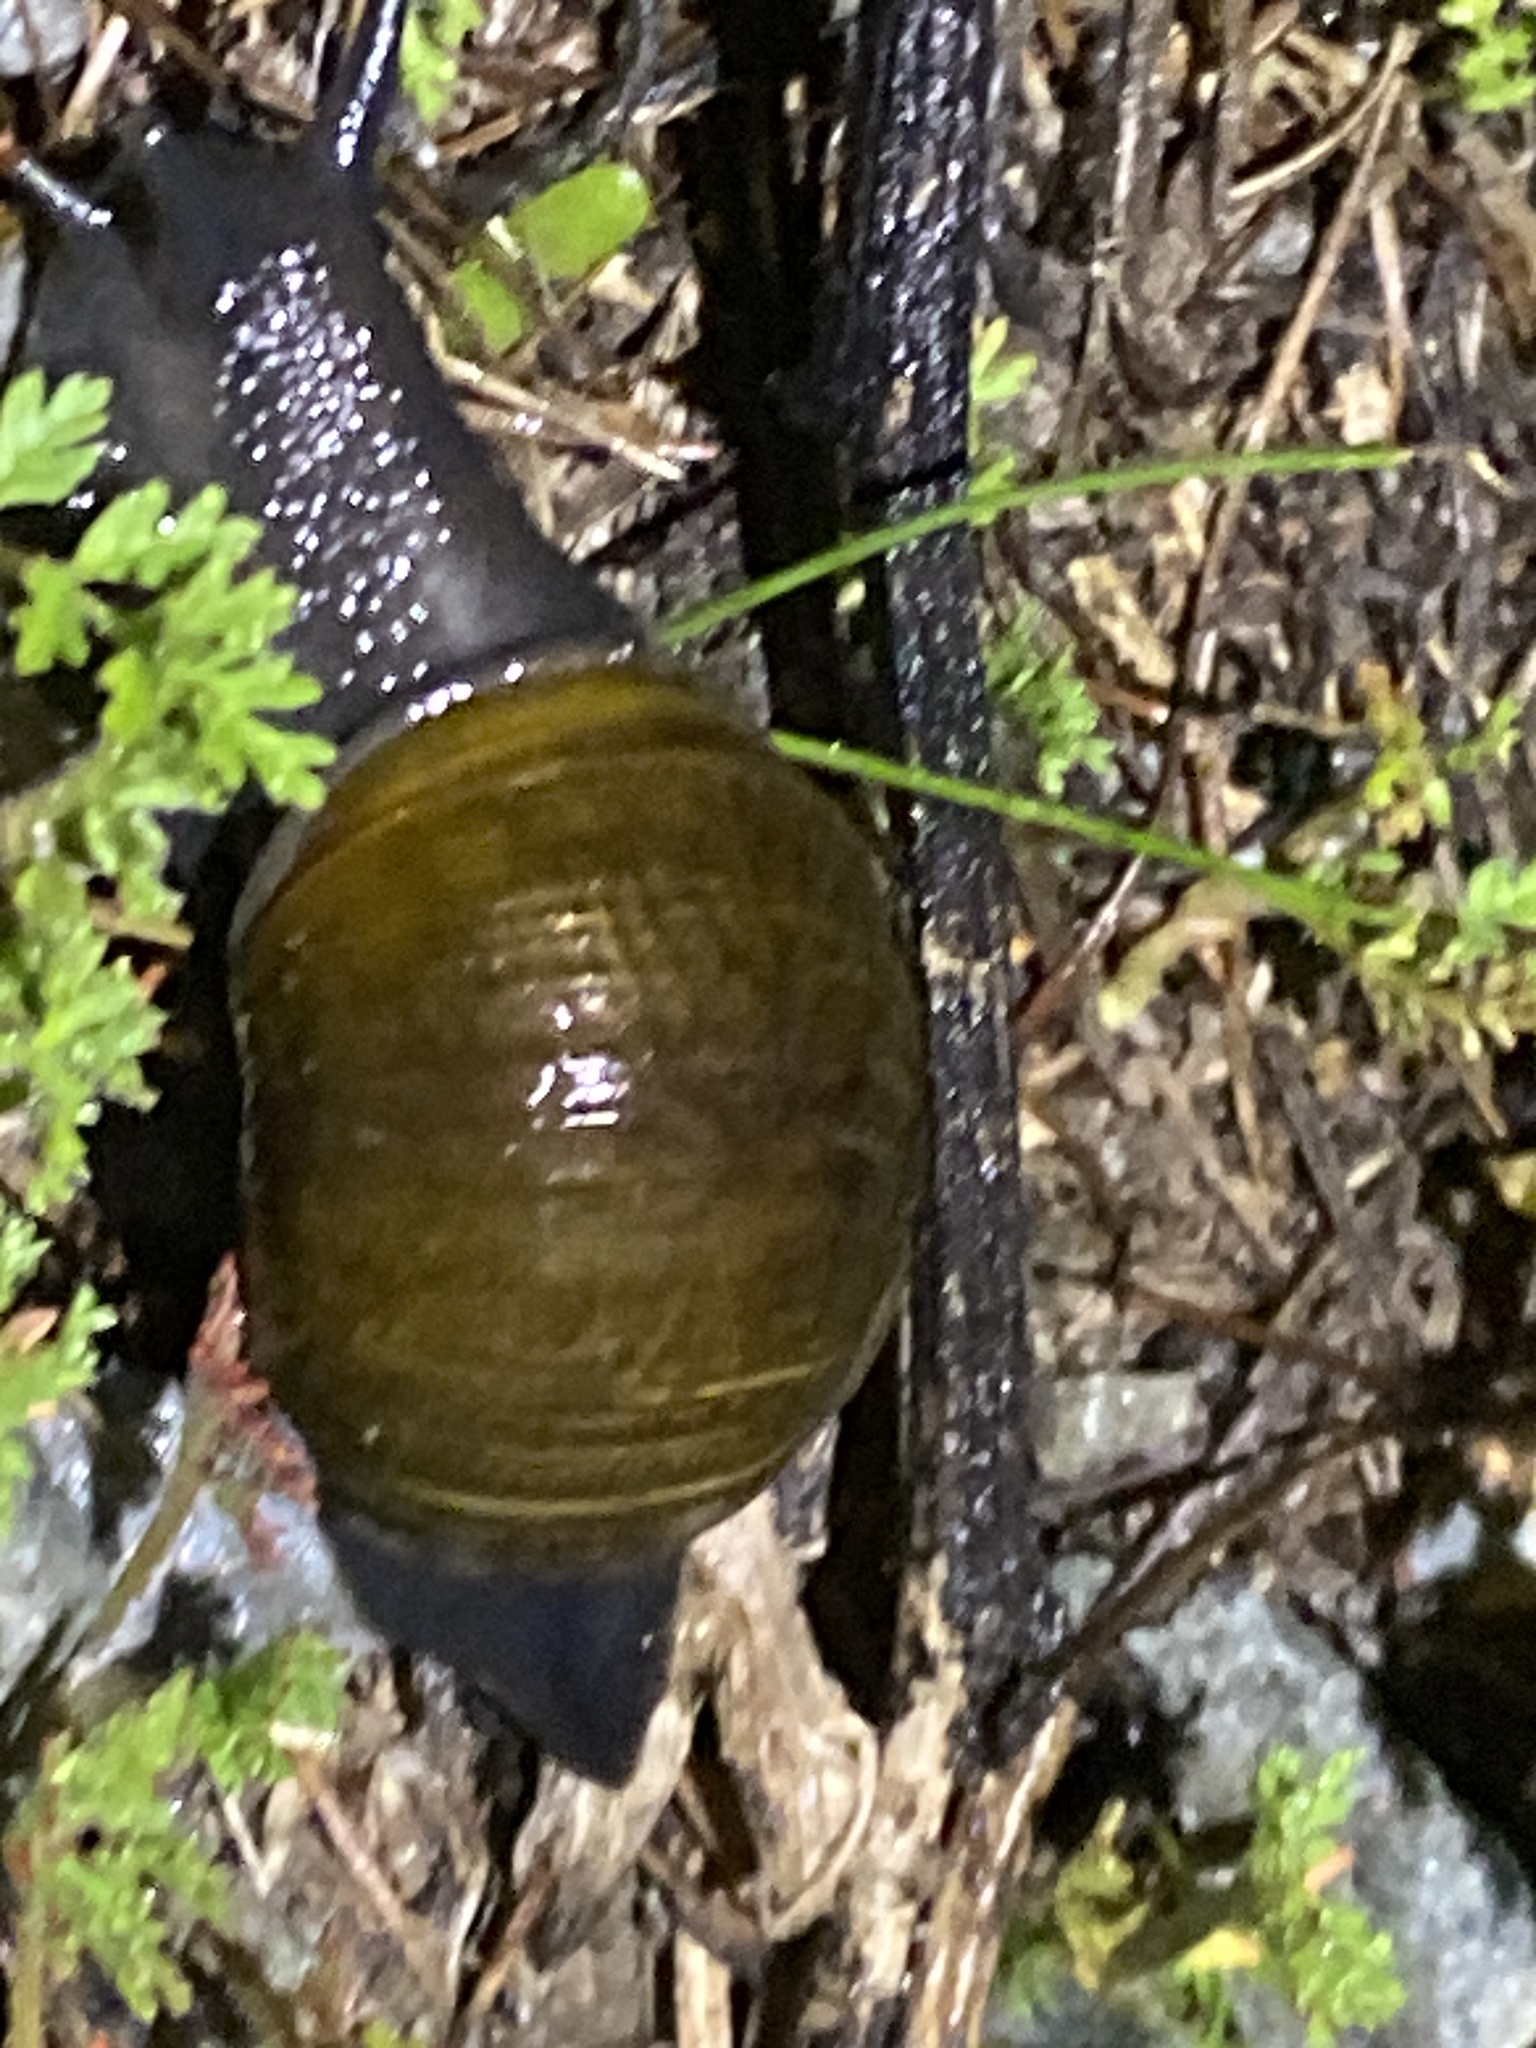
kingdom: Animalia
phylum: Mollusca
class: Gastropoda
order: Stylommatophora
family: Helicidae
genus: Cantareus
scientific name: Cantareus apertus
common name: Green gardensnail
